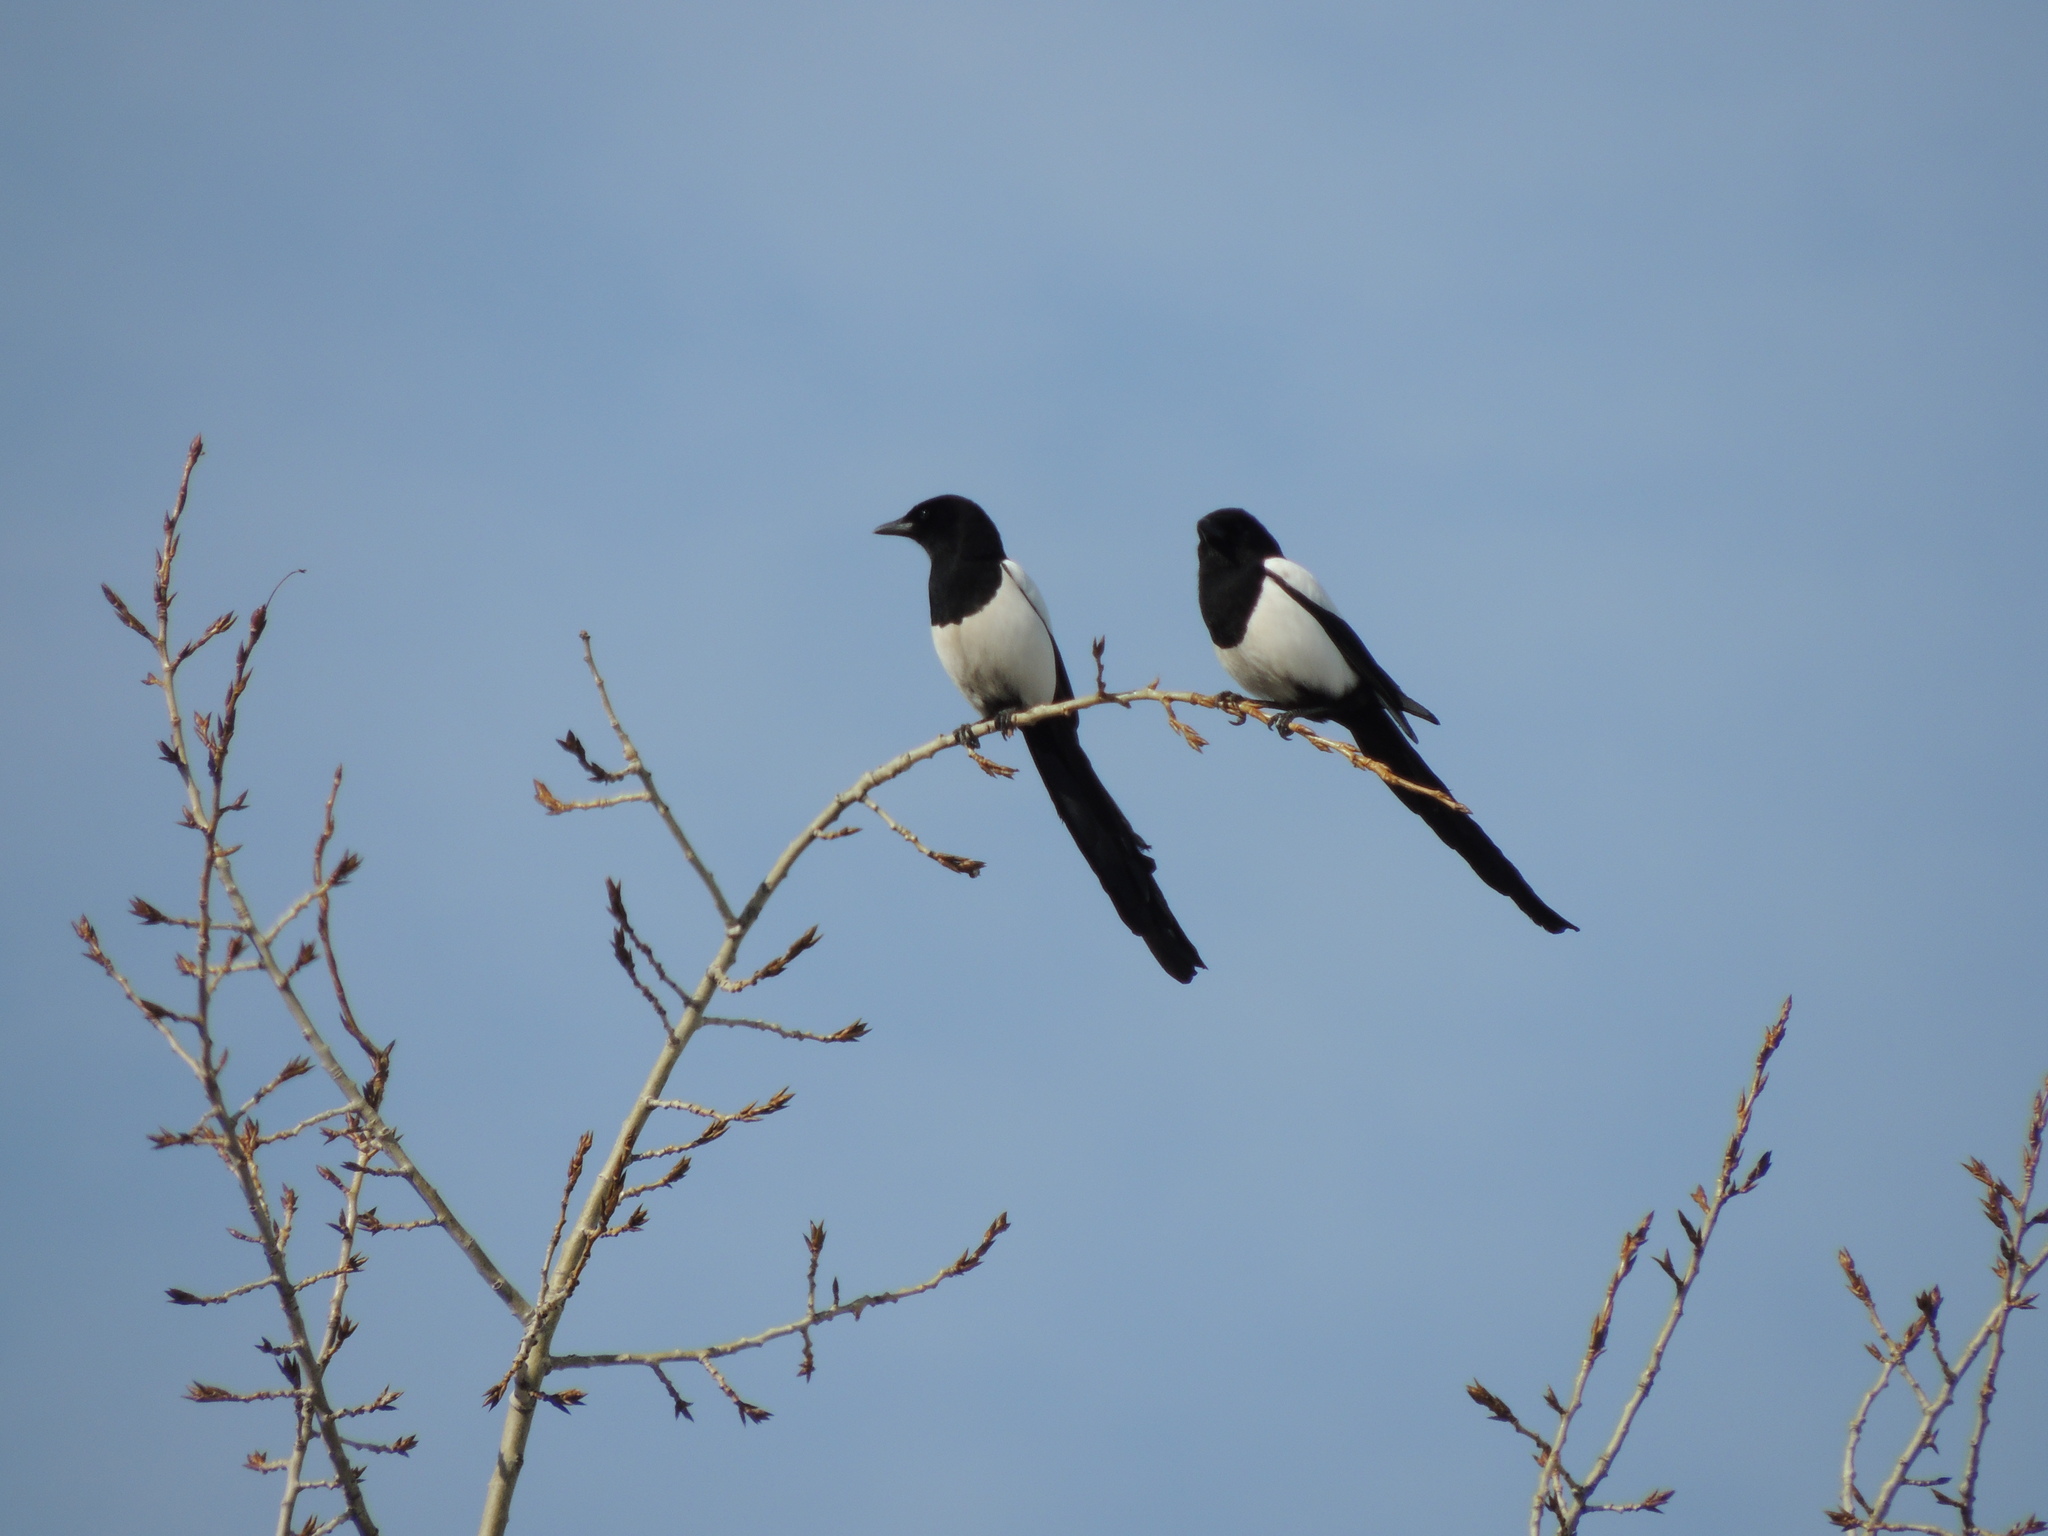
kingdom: Animalia
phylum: Chordata
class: Aves
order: Passeriformes
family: Corvidae
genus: Pica
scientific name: Pica pica
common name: Eurasian magpie
